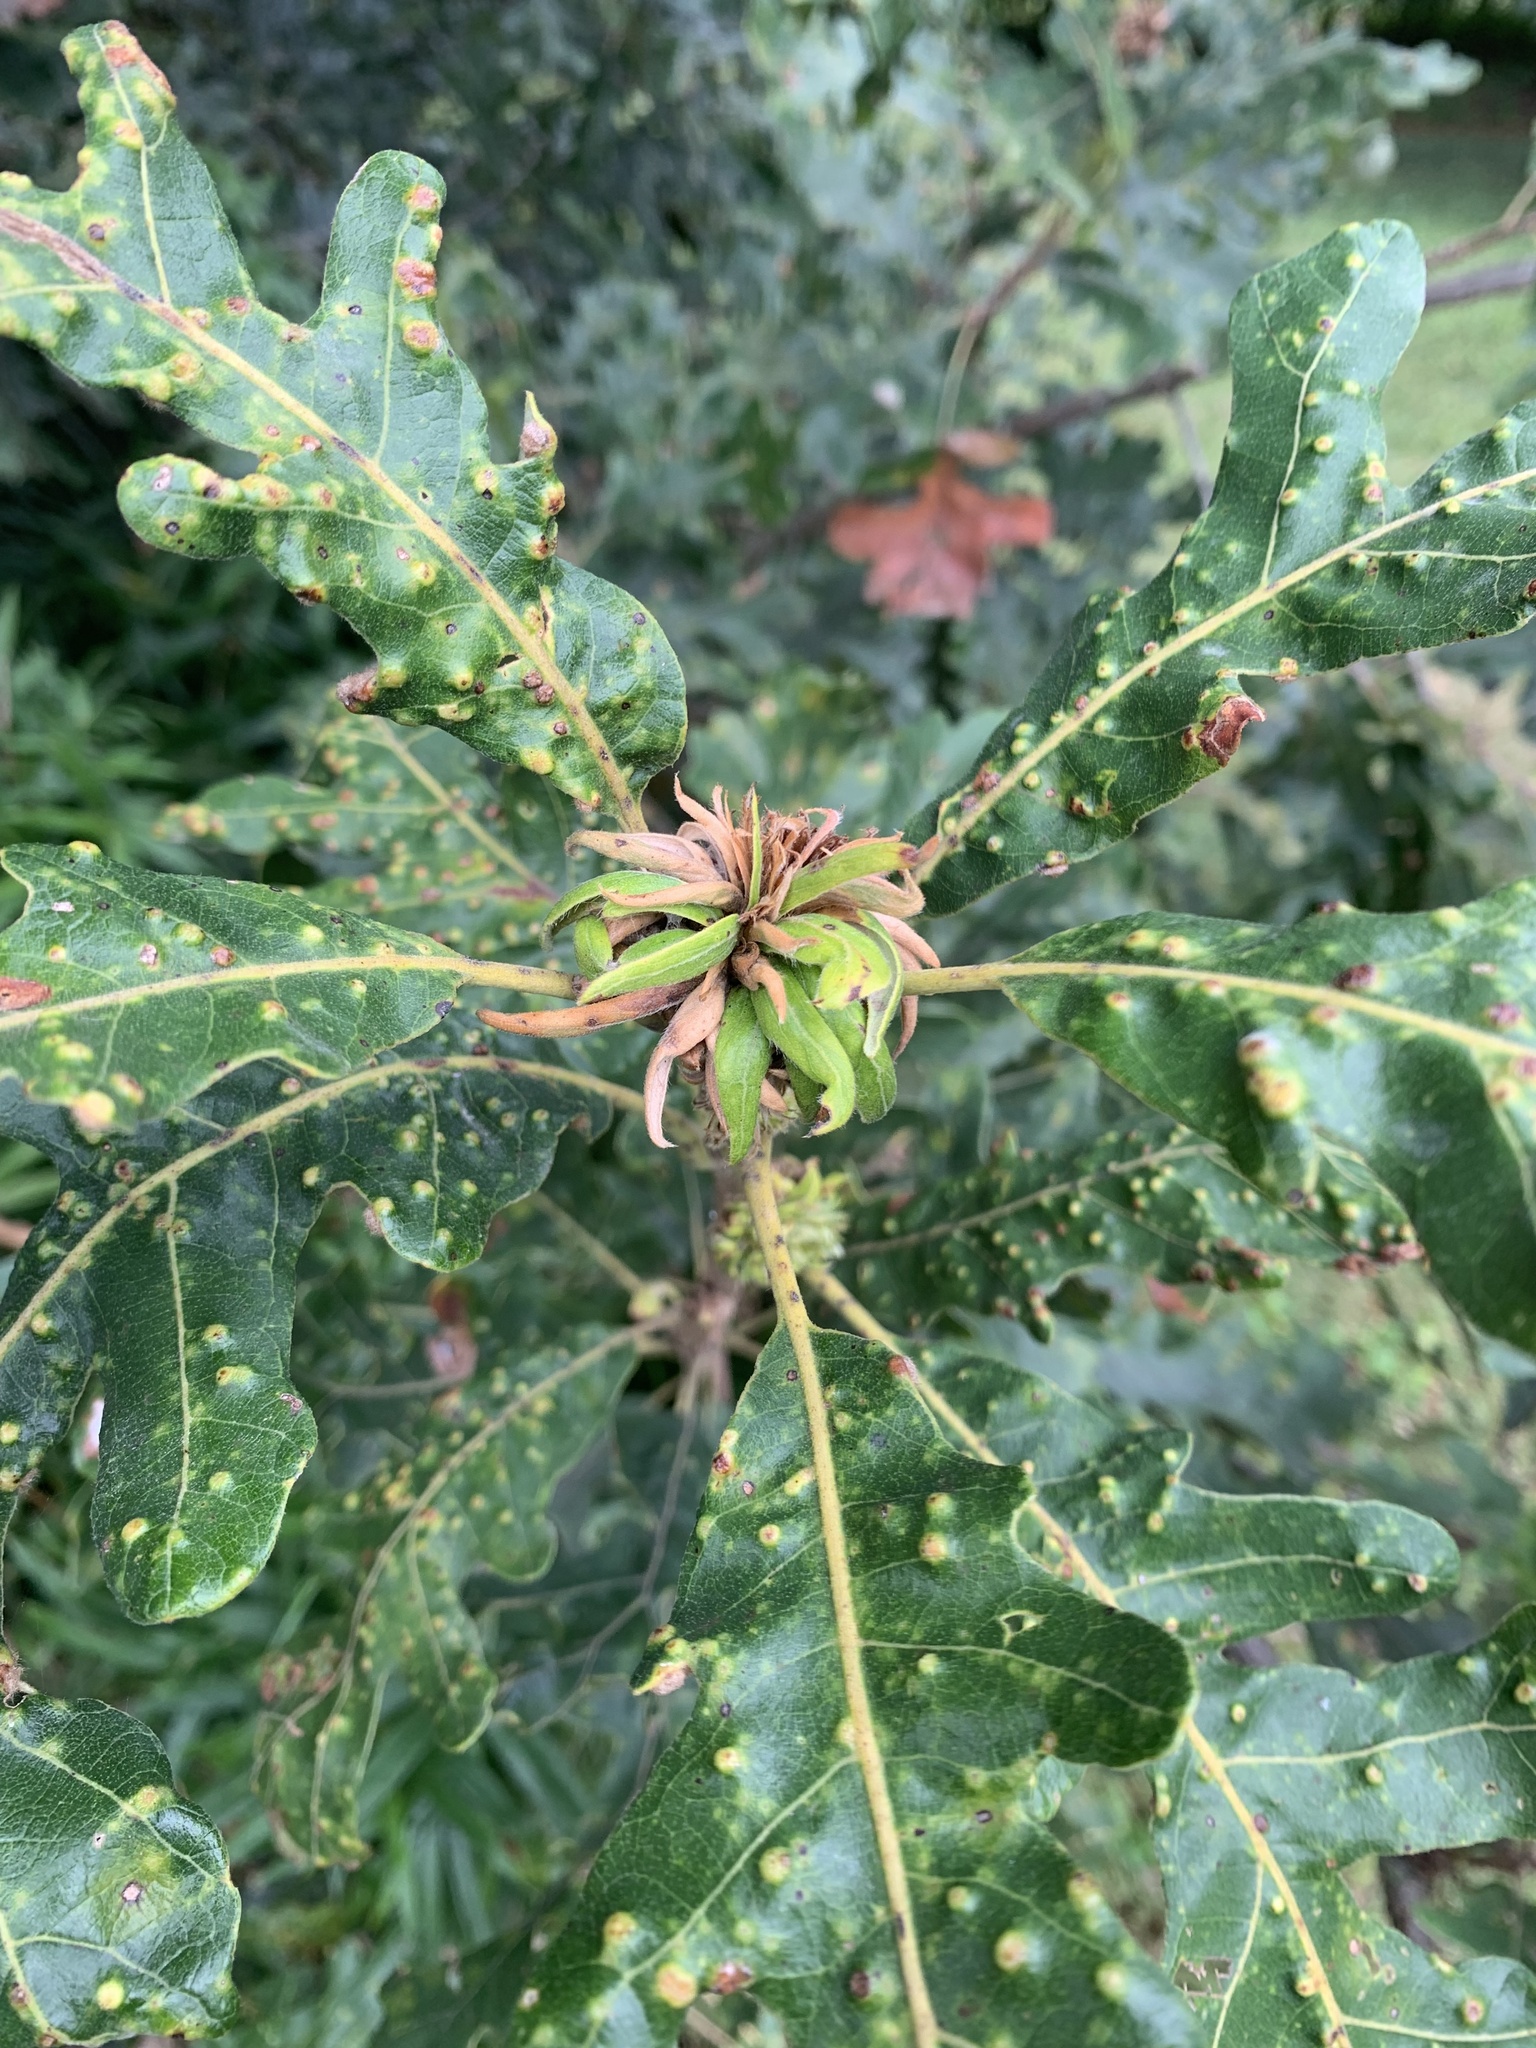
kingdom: Animalia
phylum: Arthropoda
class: Insecta
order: Hymenoptera
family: Cynipidae
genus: Andricus
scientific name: Andricus
